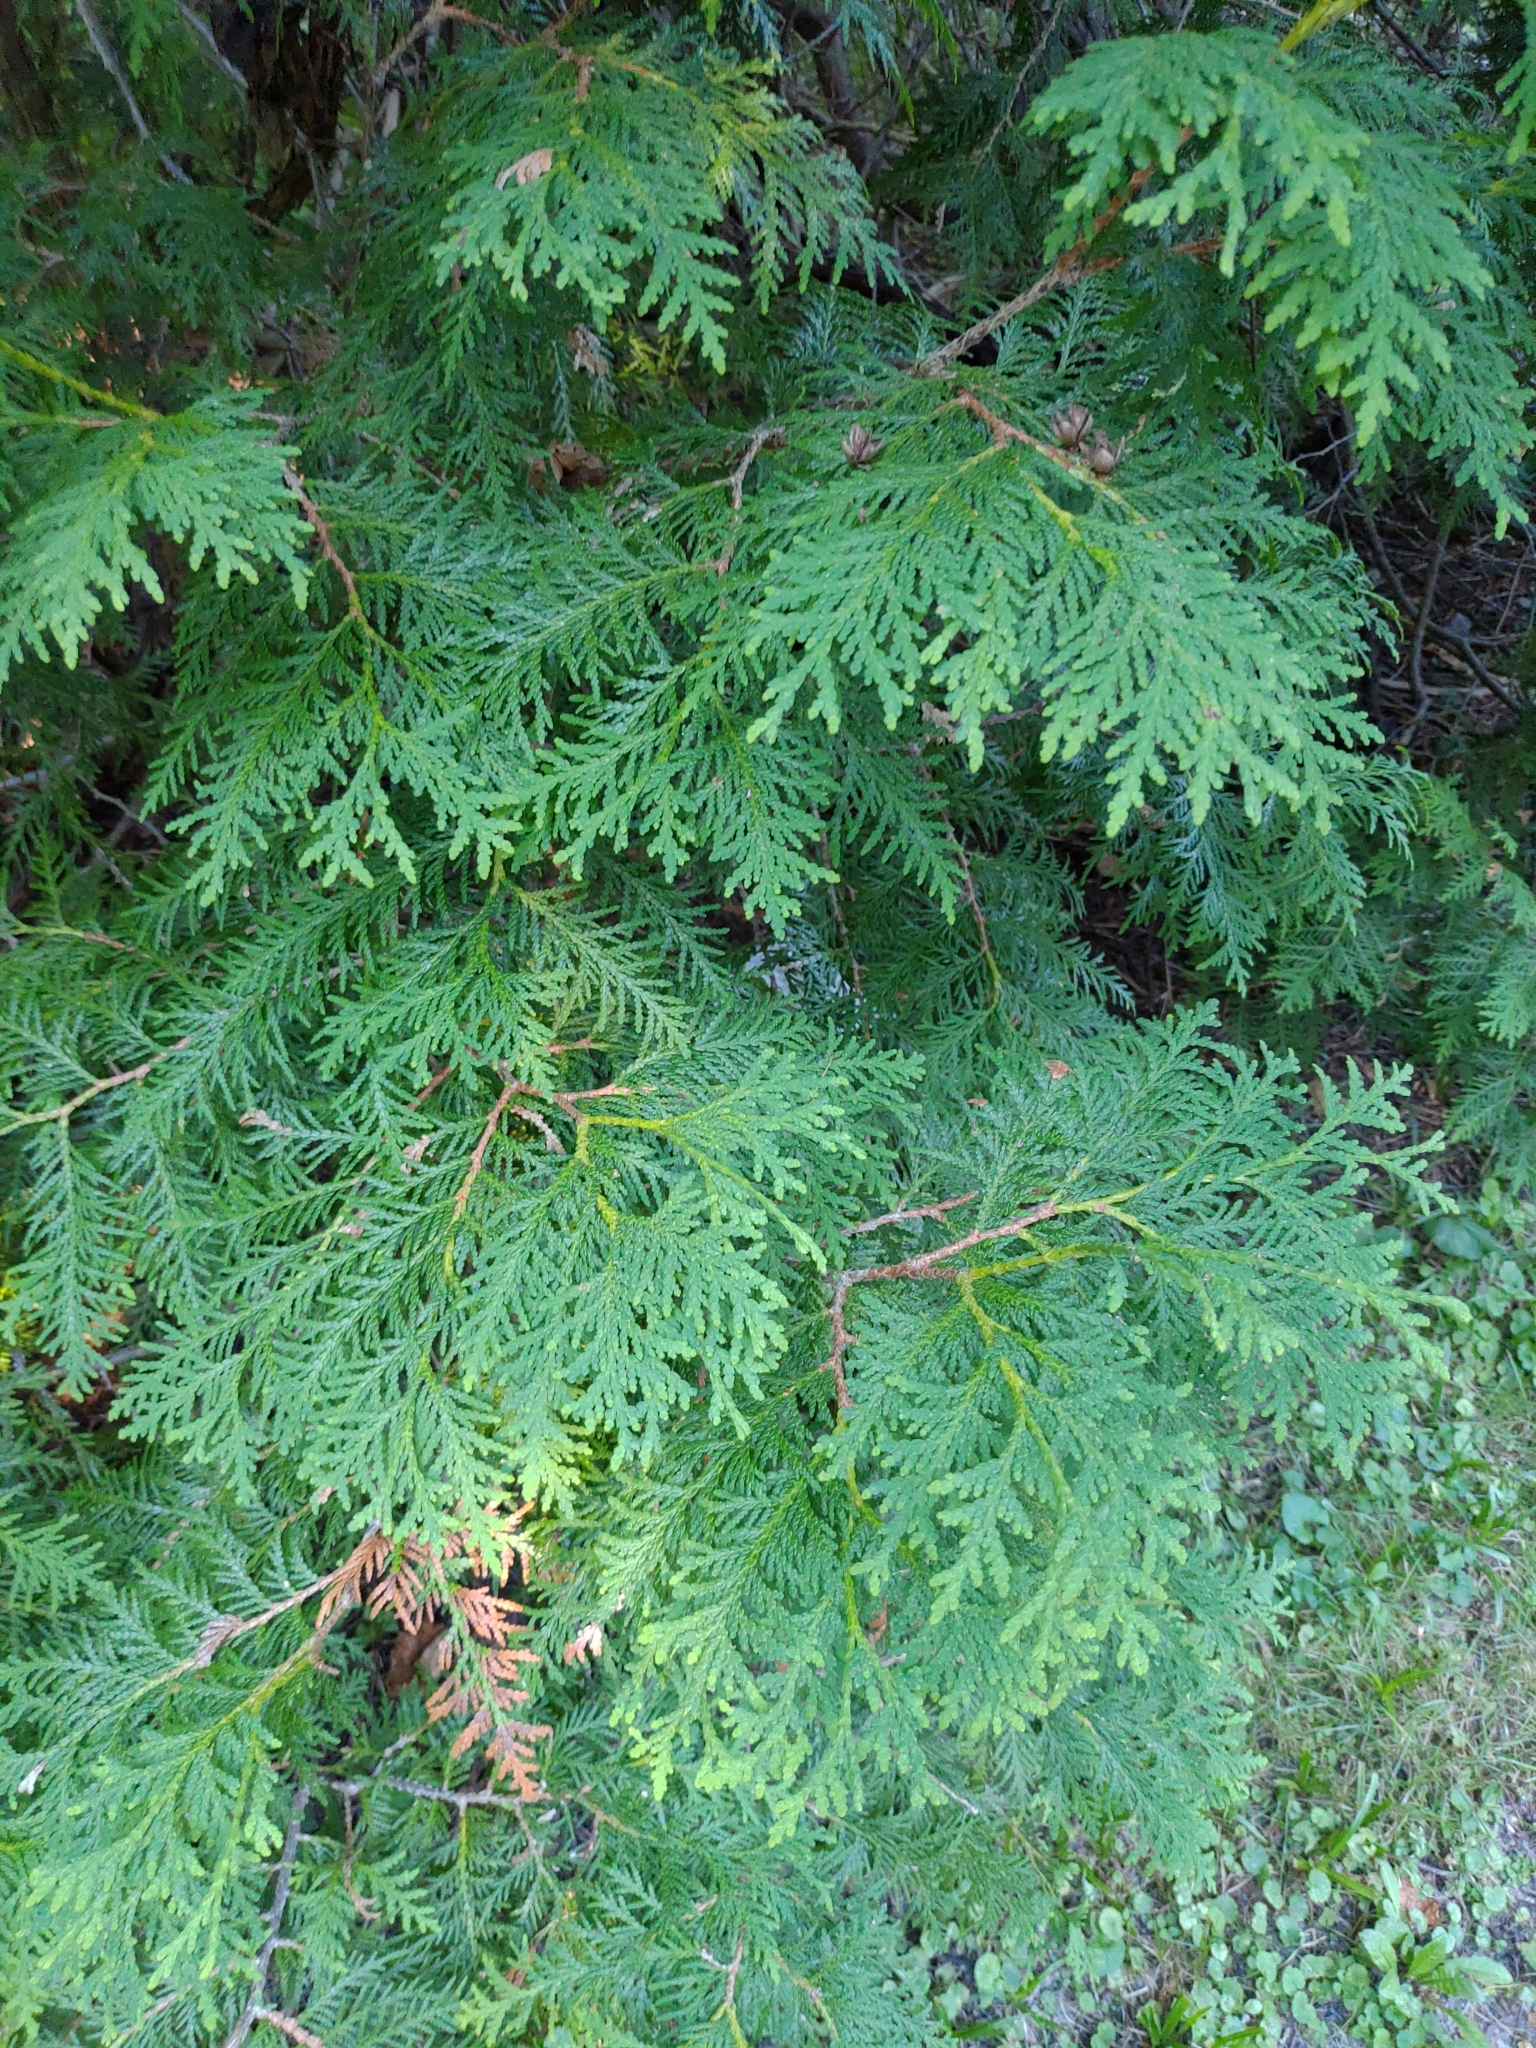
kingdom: Plantae
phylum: Tracheophyta
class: Pinopsida
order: Pinales
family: Cupressaceae
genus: Thuja
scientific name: Thuja occidentalis
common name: Northern white-cedar
